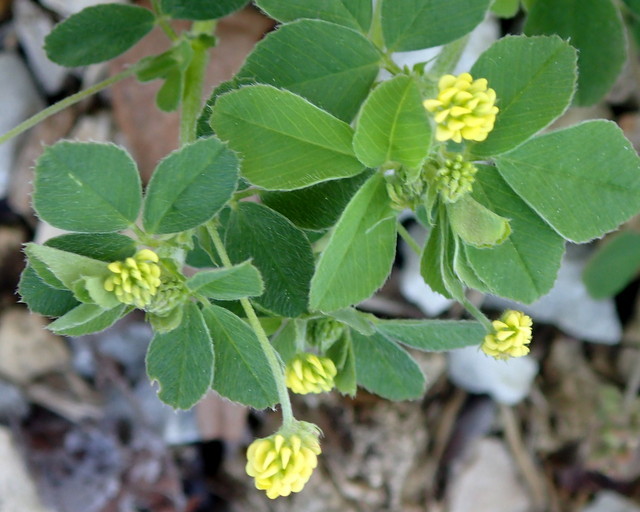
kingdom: Plantae
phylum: Tracheophyta
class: Magnoliopsida
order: Fabales
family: Fabaceae
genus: Medicago
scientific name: Medicago lupulina
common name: Black medick
